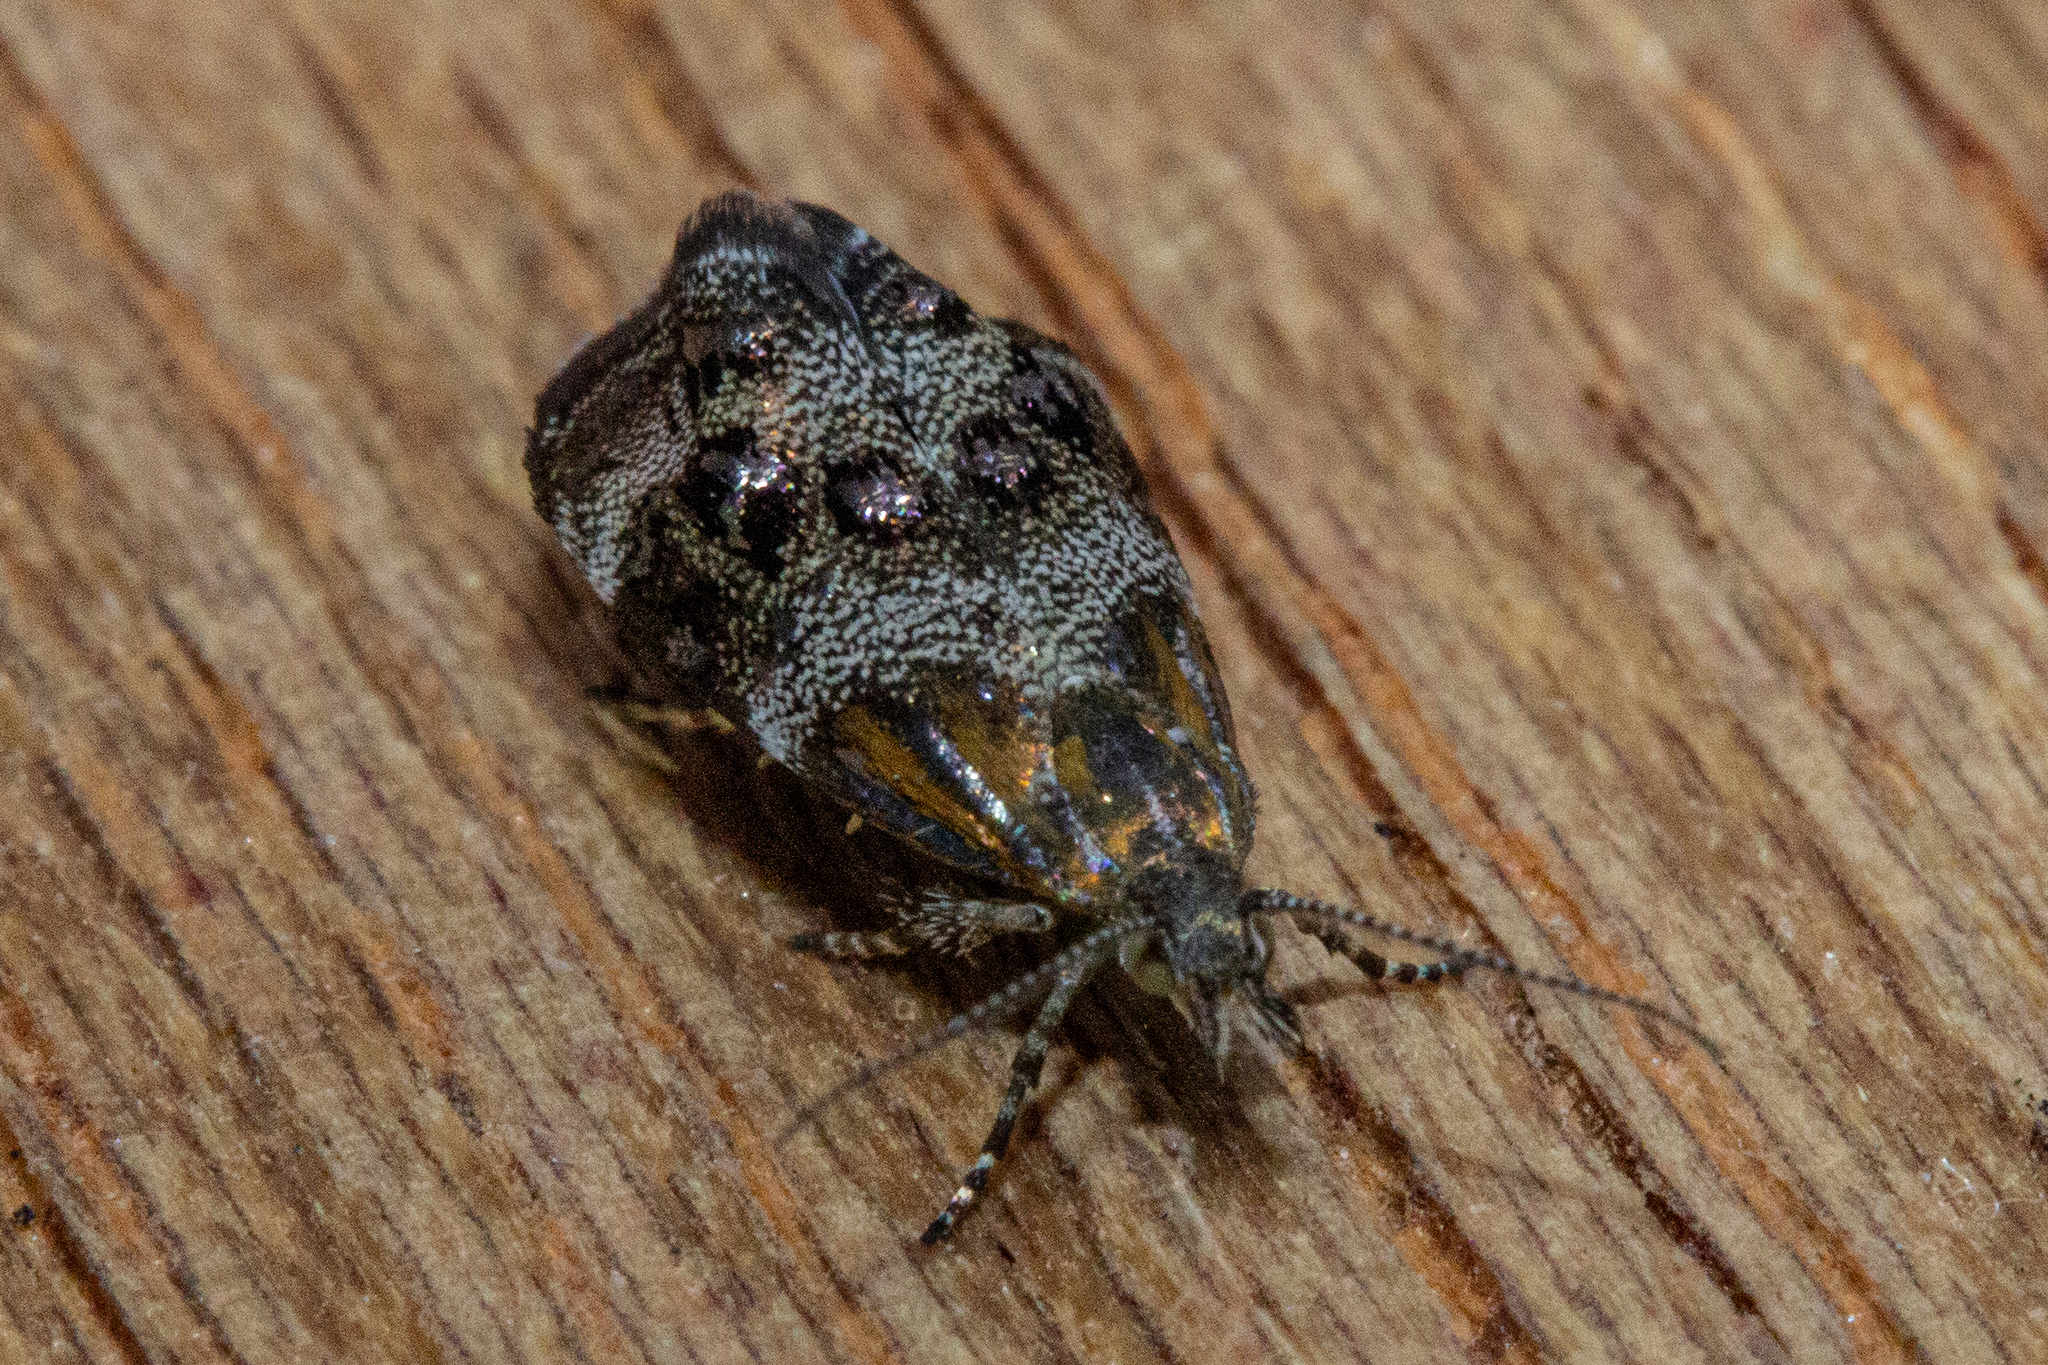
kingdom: Animalia
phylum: Arthropoda
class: Insecta
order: Lepidoptera
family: Choreutidae
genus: Tebenna
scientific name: Tebenna micalis
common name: Vagrant twitcher
